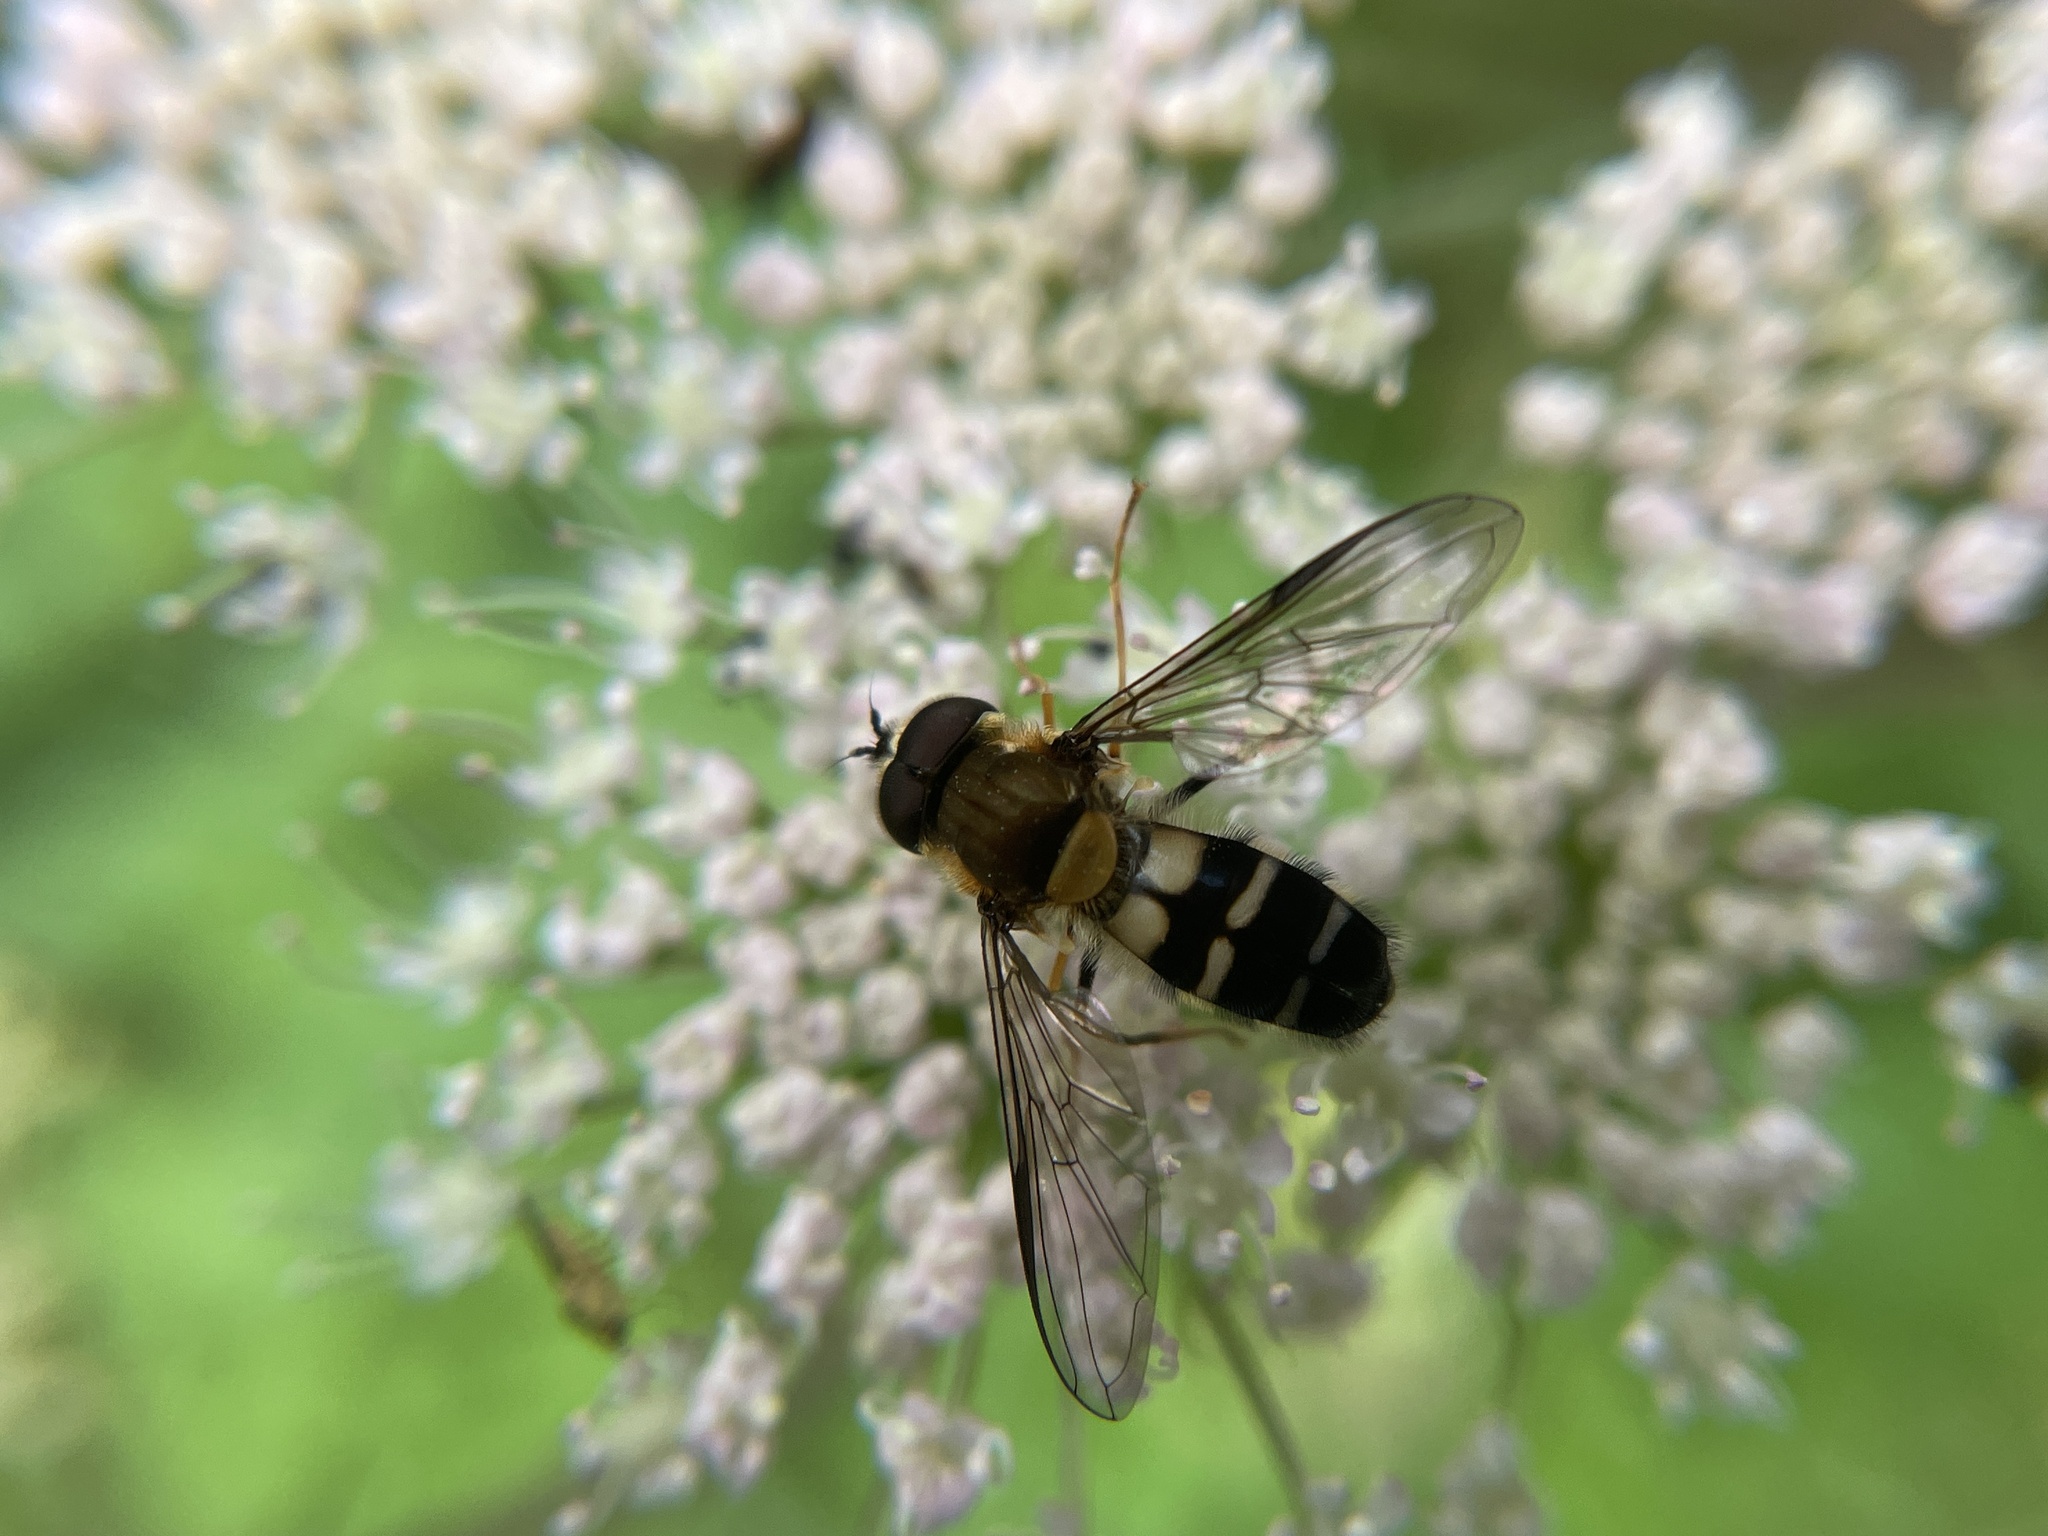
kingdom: Animalia
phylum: Arthropoda
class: Insecta
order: Diptera
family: Syrphidae
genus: Leucozona
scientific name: Leucozona glaucia
